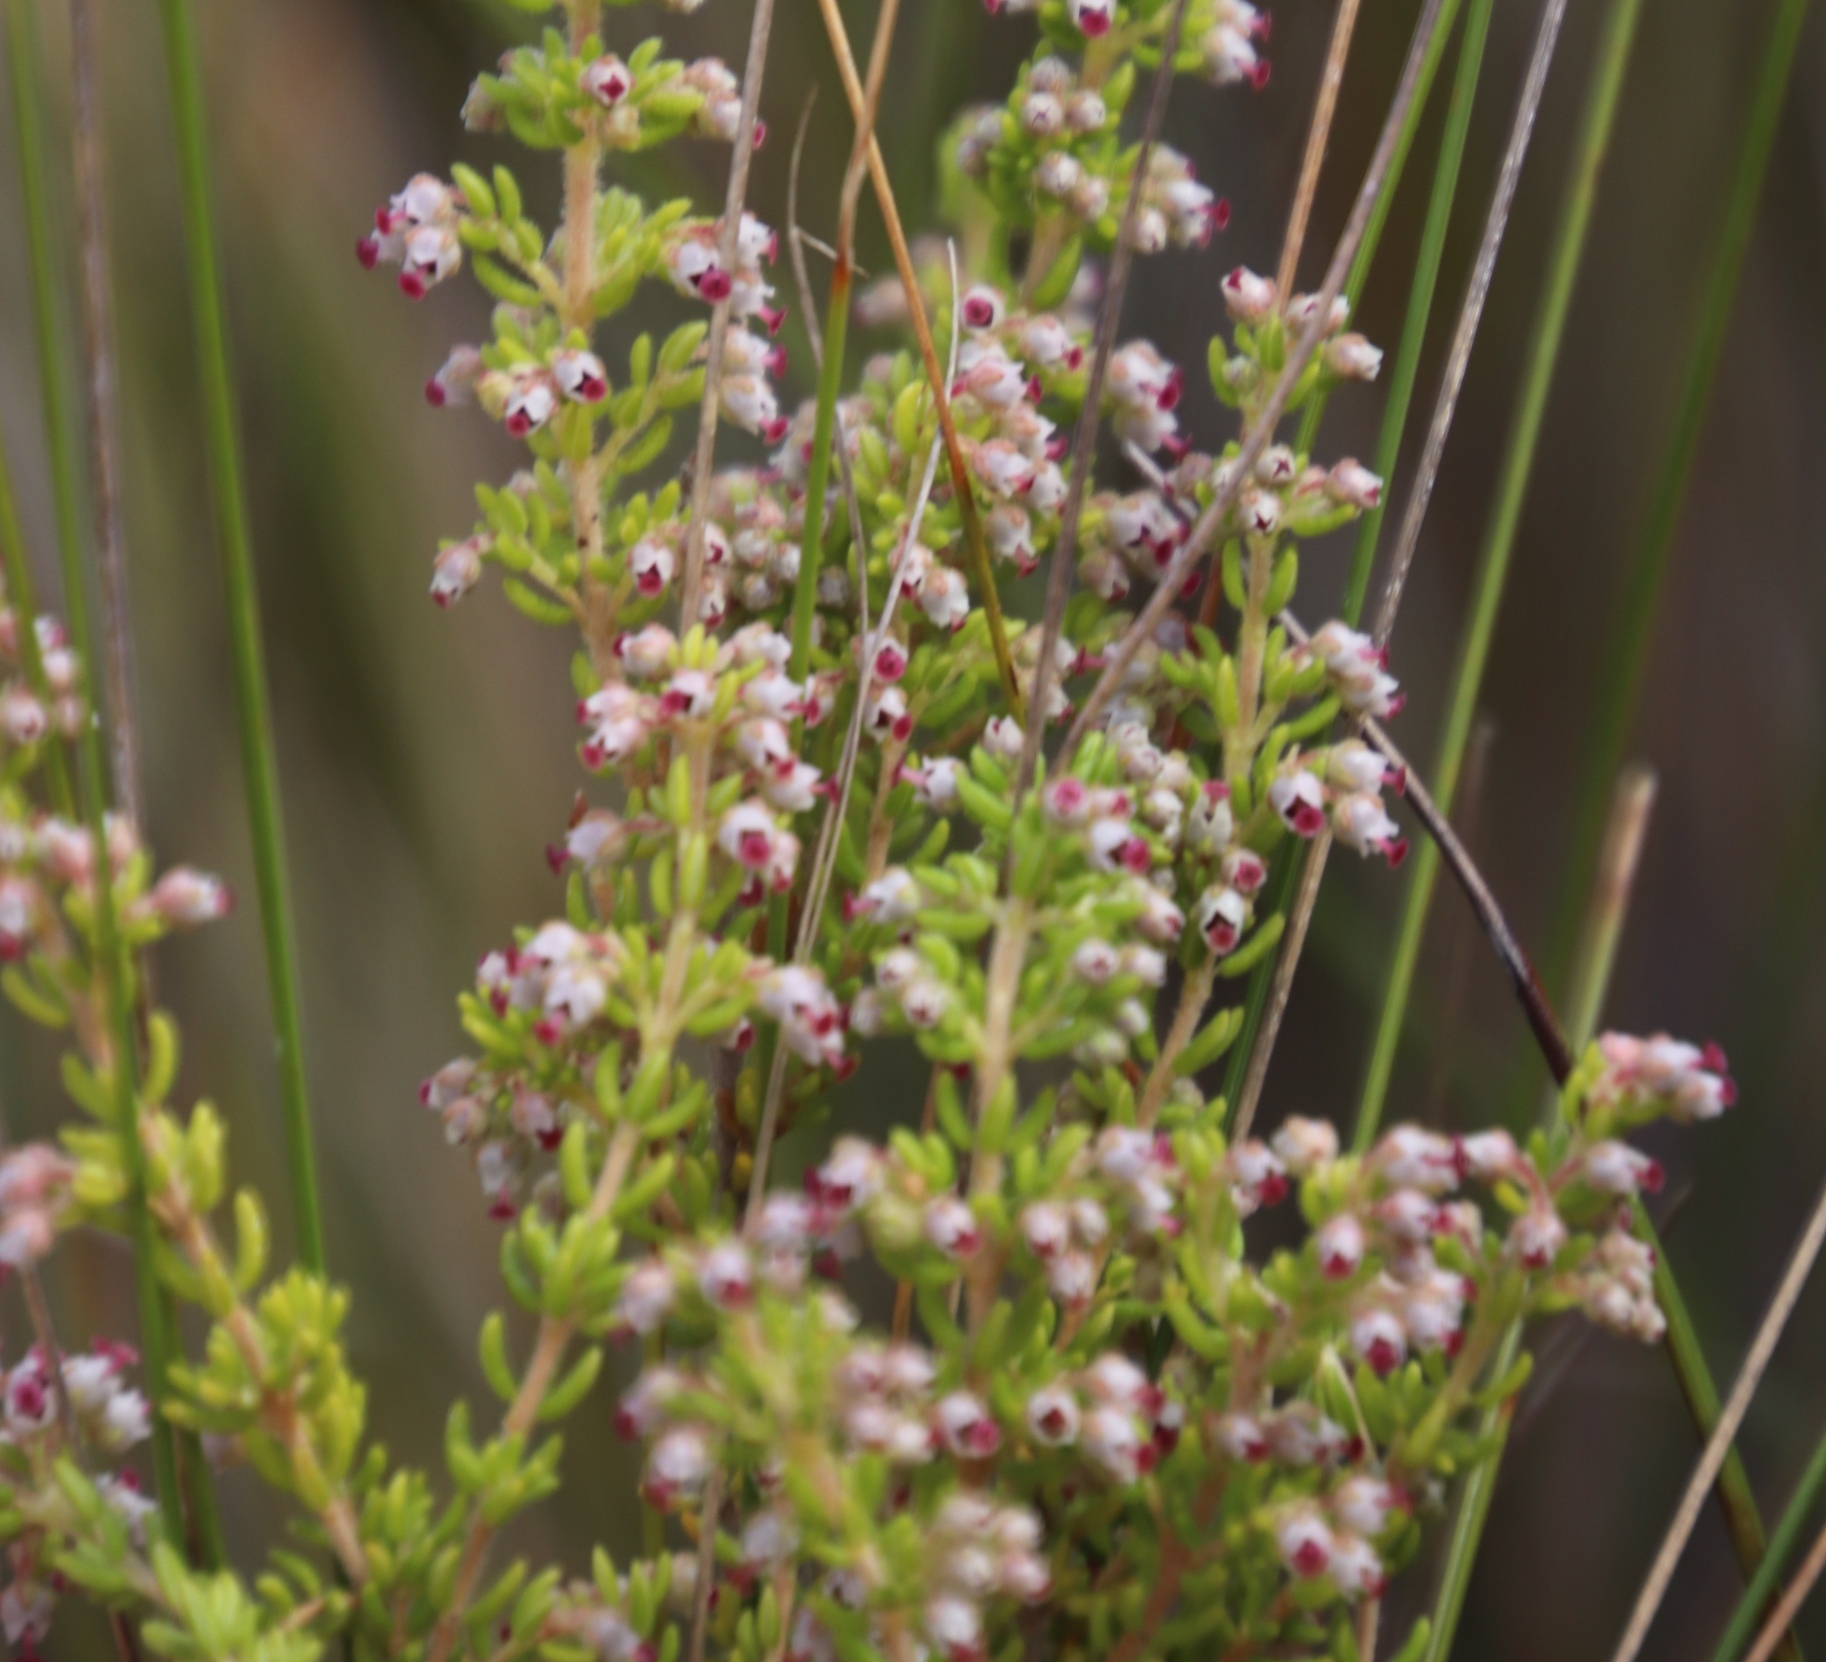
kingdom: Plantae
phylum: Tracheophyta
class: Magnoliopsida
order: Ericales
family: Ericaceae
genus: Erica
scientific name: Erica hispidula
